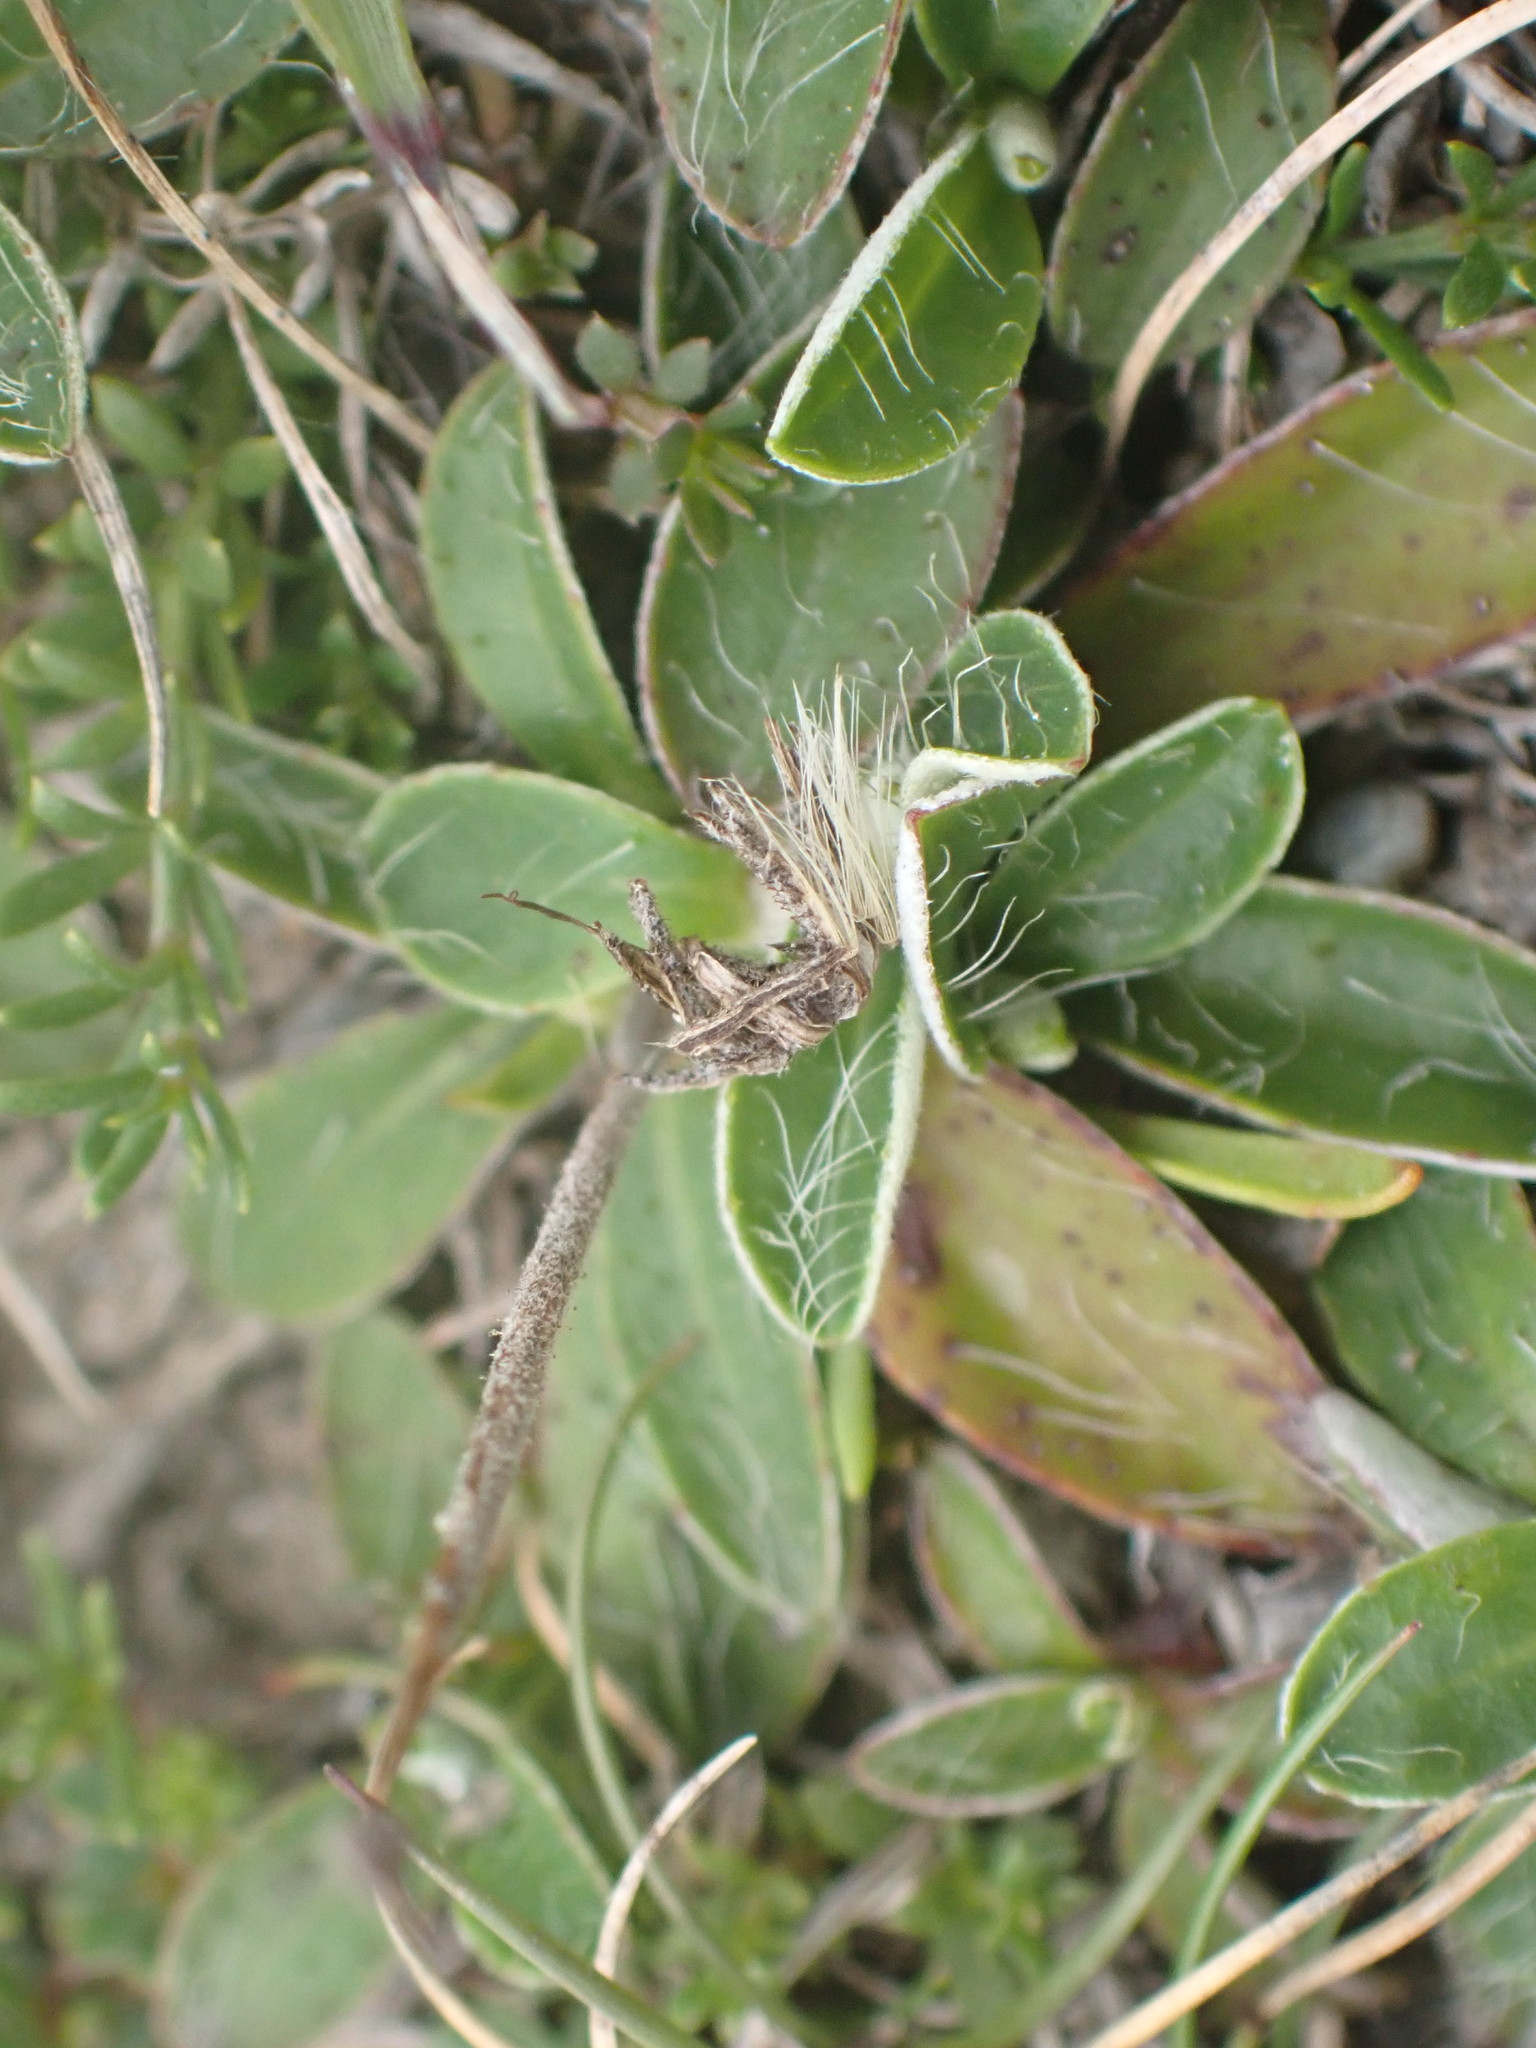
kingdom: Plantae
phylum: Tracheophyta
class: Magnoliopsida
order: Asterales
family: Asteraceae
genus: Pilosella
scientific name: Pilosella officinarum
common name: Mouse-ear hawkweed
